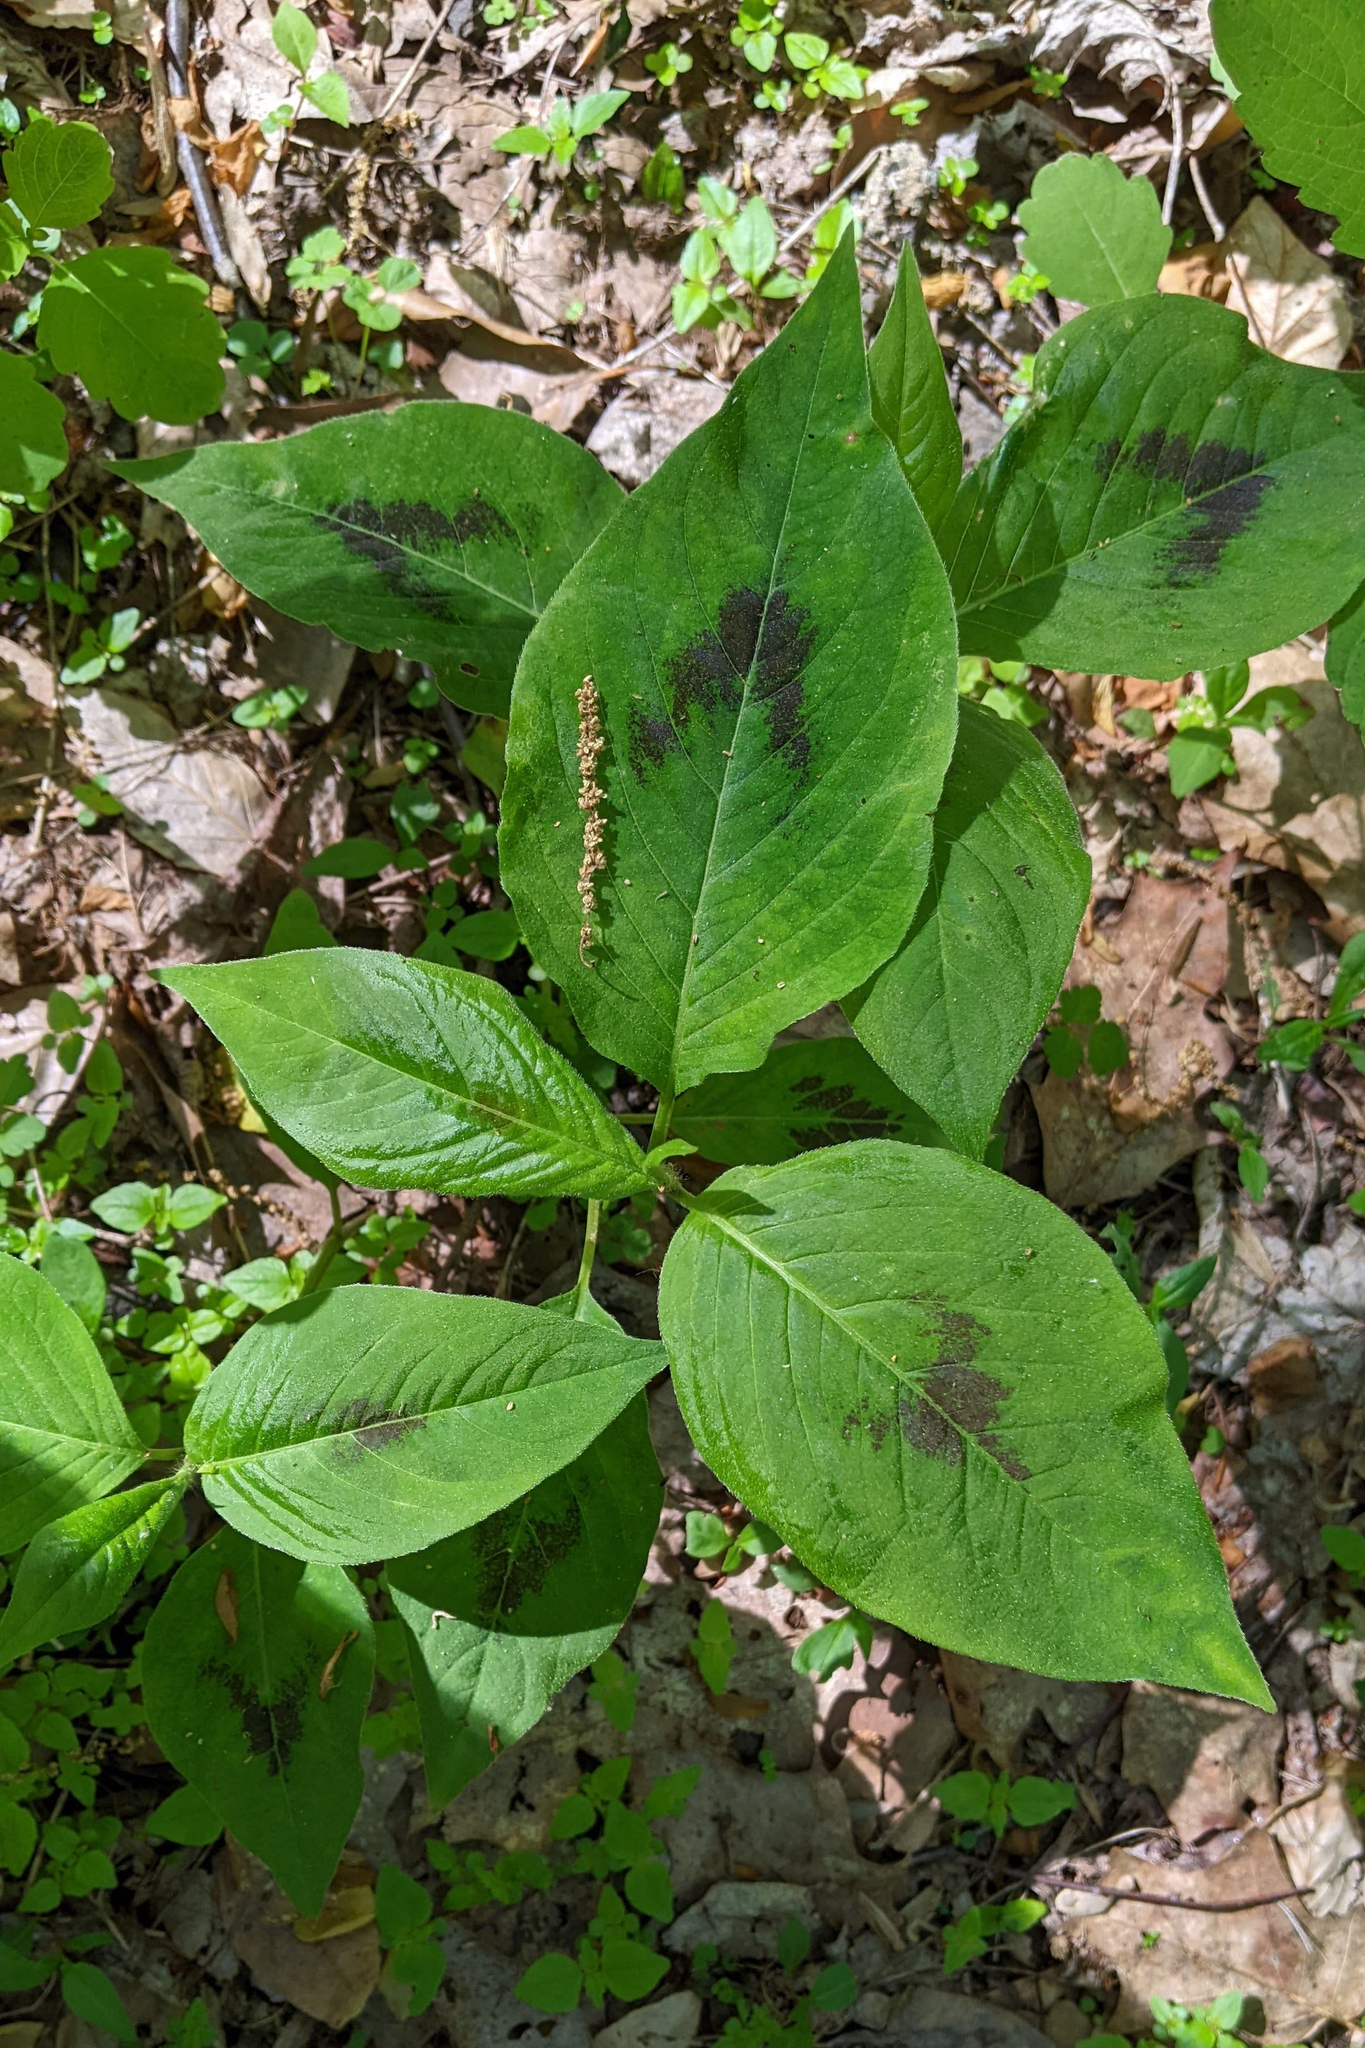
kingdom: Plantae
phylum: Tracheophyta
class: Magnoliopsida
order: Caryophyllales
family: Polygonaceae
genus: Persicaria
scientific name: Persicaria virginiana
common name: Jumpseed
